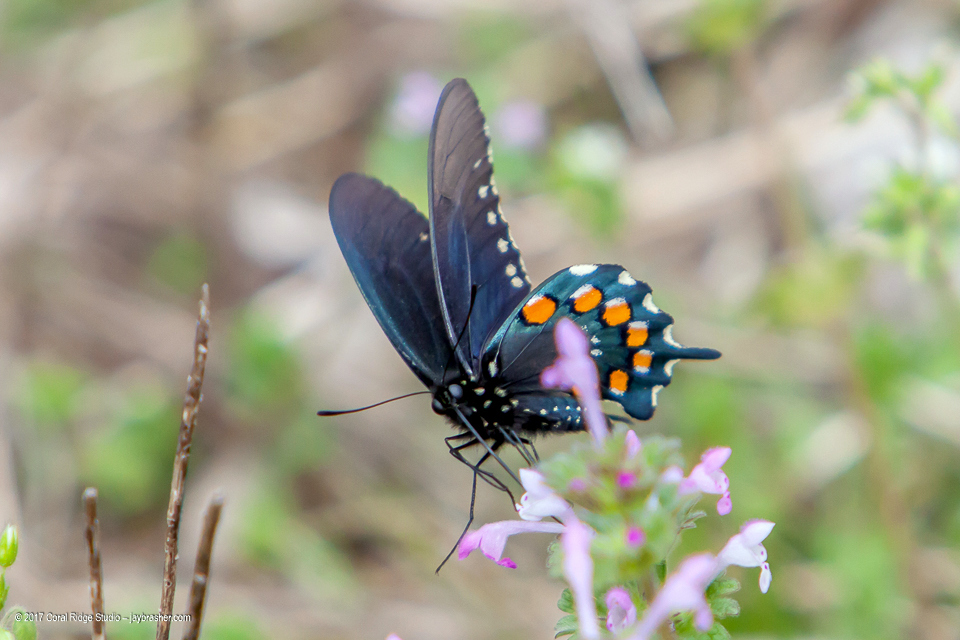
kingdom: Animalia
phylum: Arthropoda
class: Insecta
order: Lepidoptera
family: Papilionidae
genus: Battus
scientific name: Battus philenor
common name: Pipevine swallowtail
